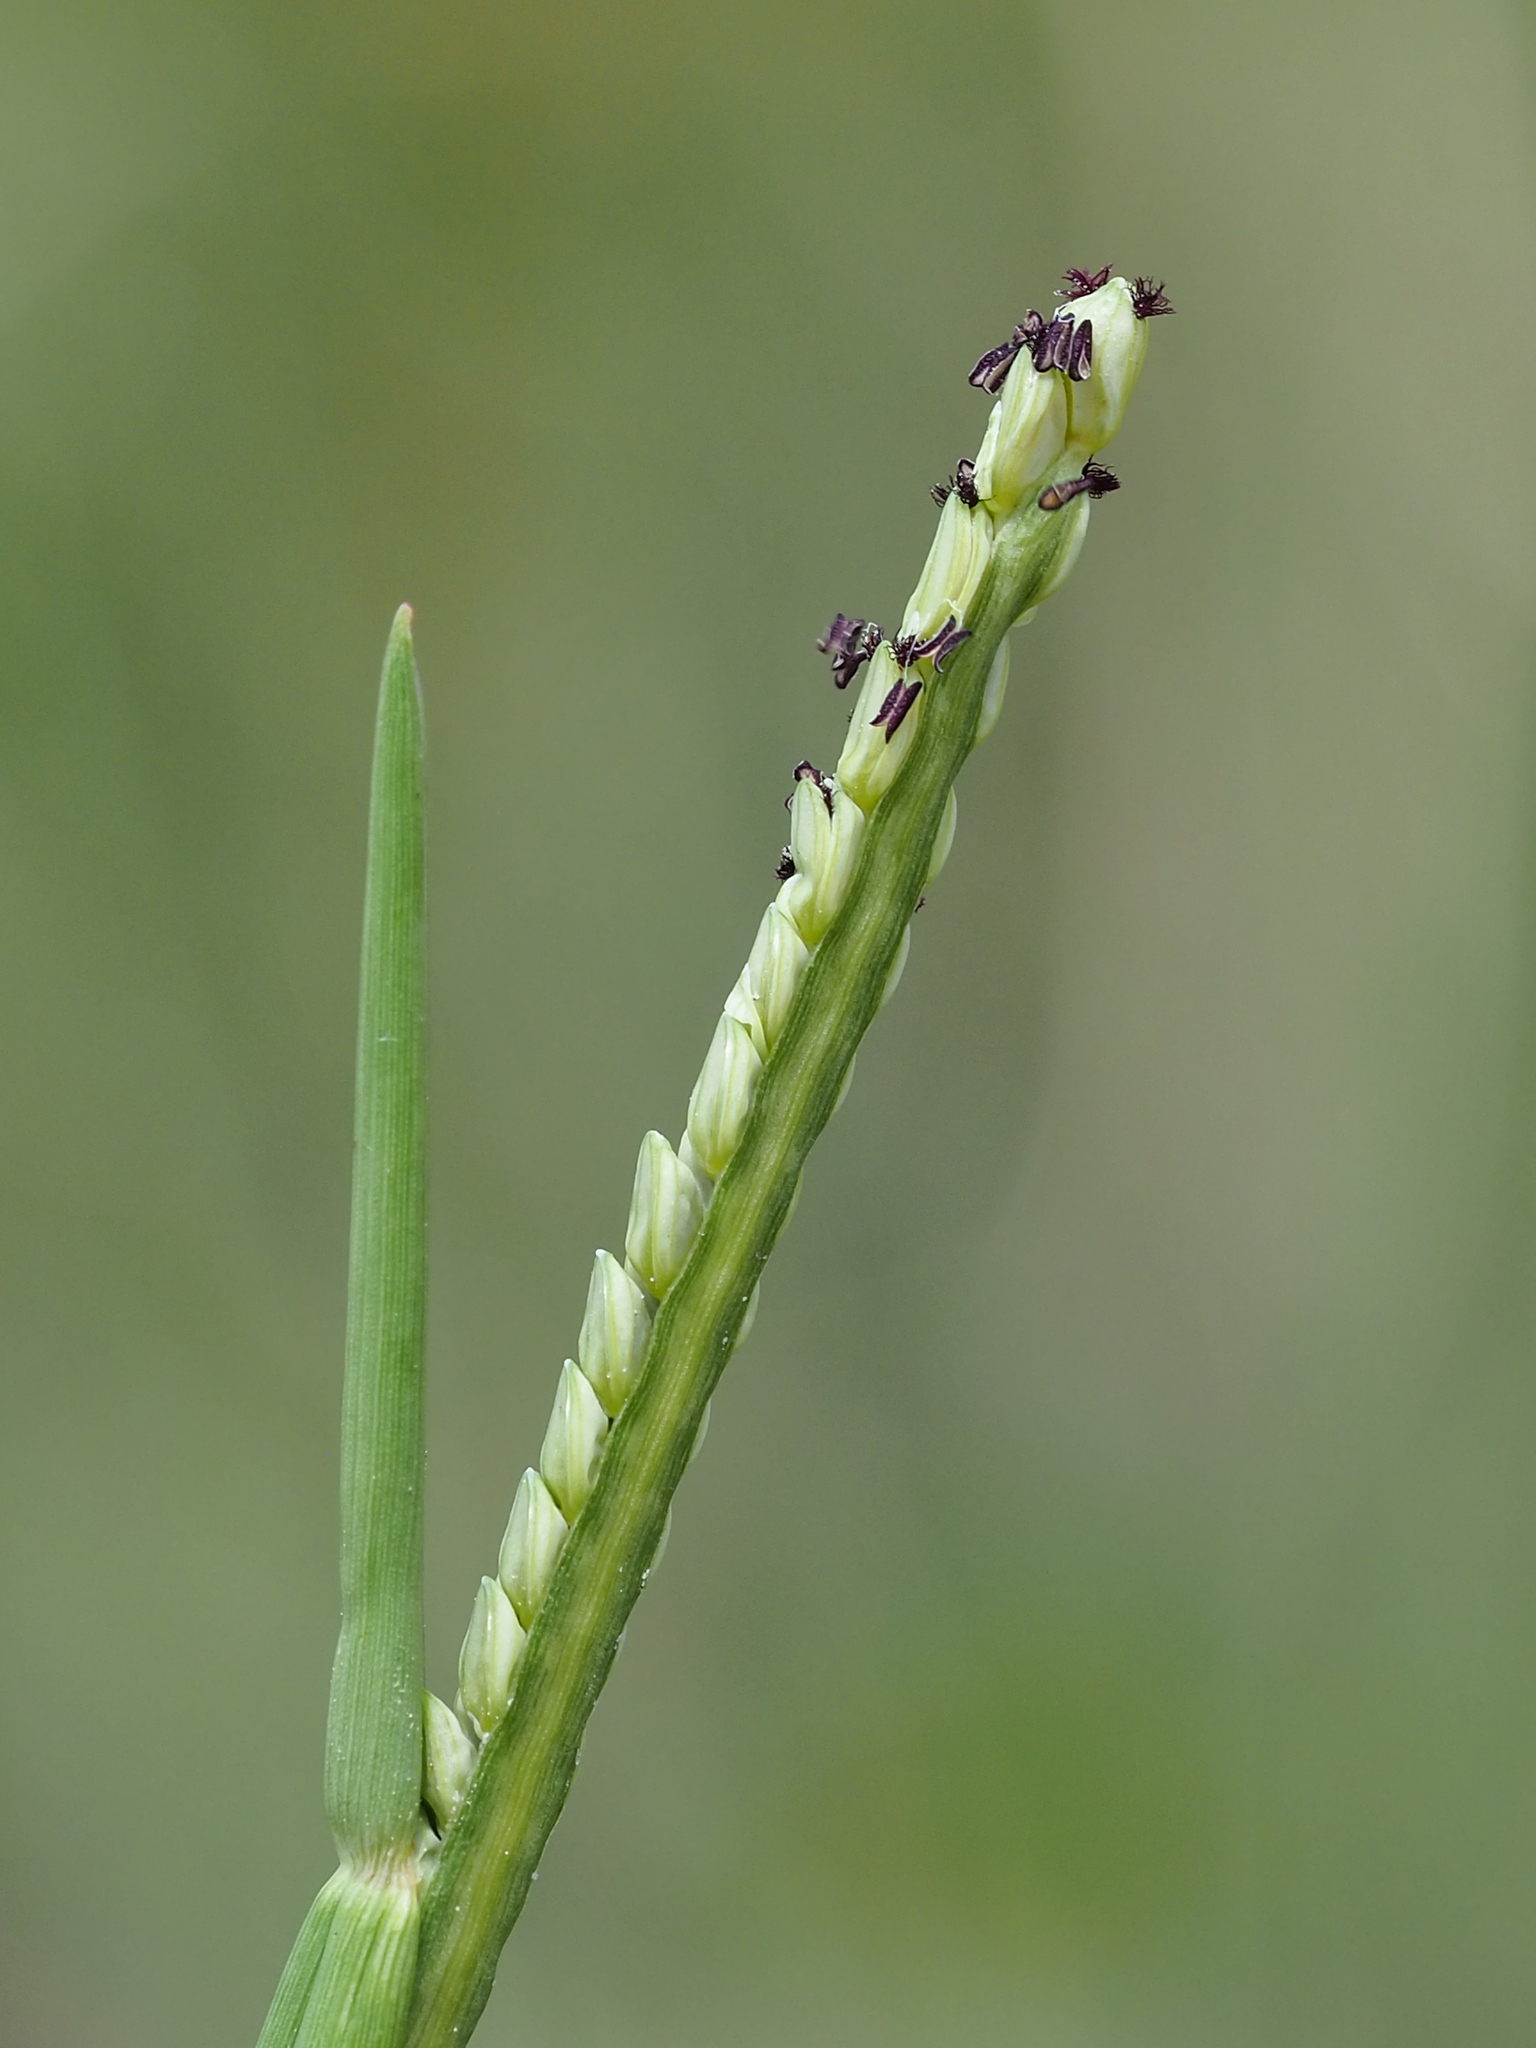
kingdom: Plantae
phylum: Tracheophyta
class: Liliopsida
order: Poales
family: Poaceae
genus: Paspalum
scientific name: Paspalum distichum
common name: Knotgrass
